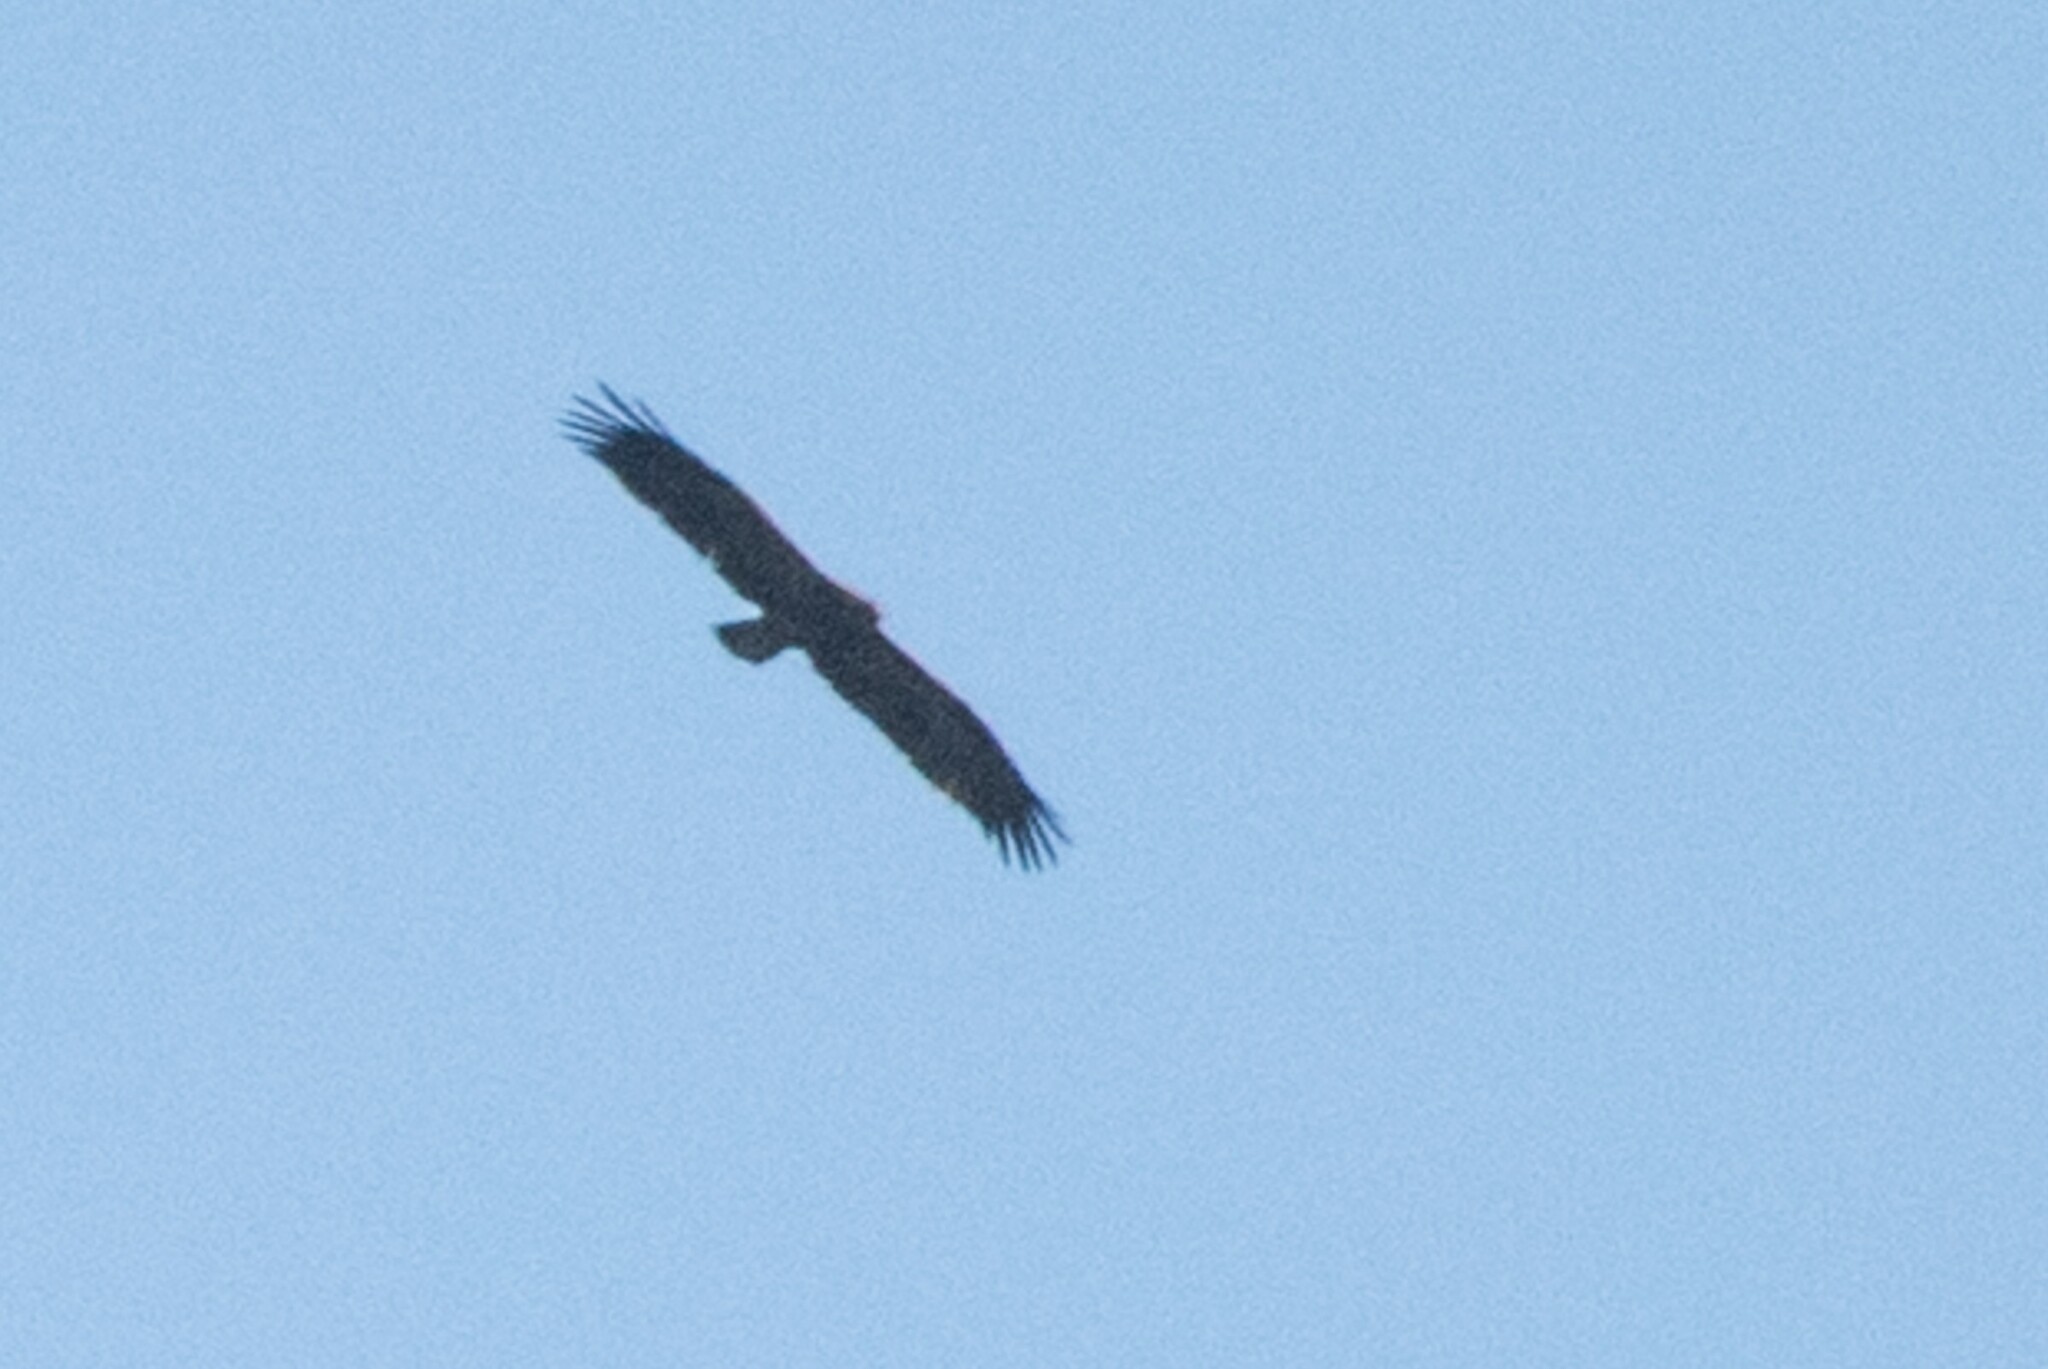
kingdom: Animalia
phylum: Chordata
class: Aves
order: Accipitriformes
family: Accipitridae
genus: Aquila
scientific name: Aquila pomarina
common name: Lesser spotted eagle
